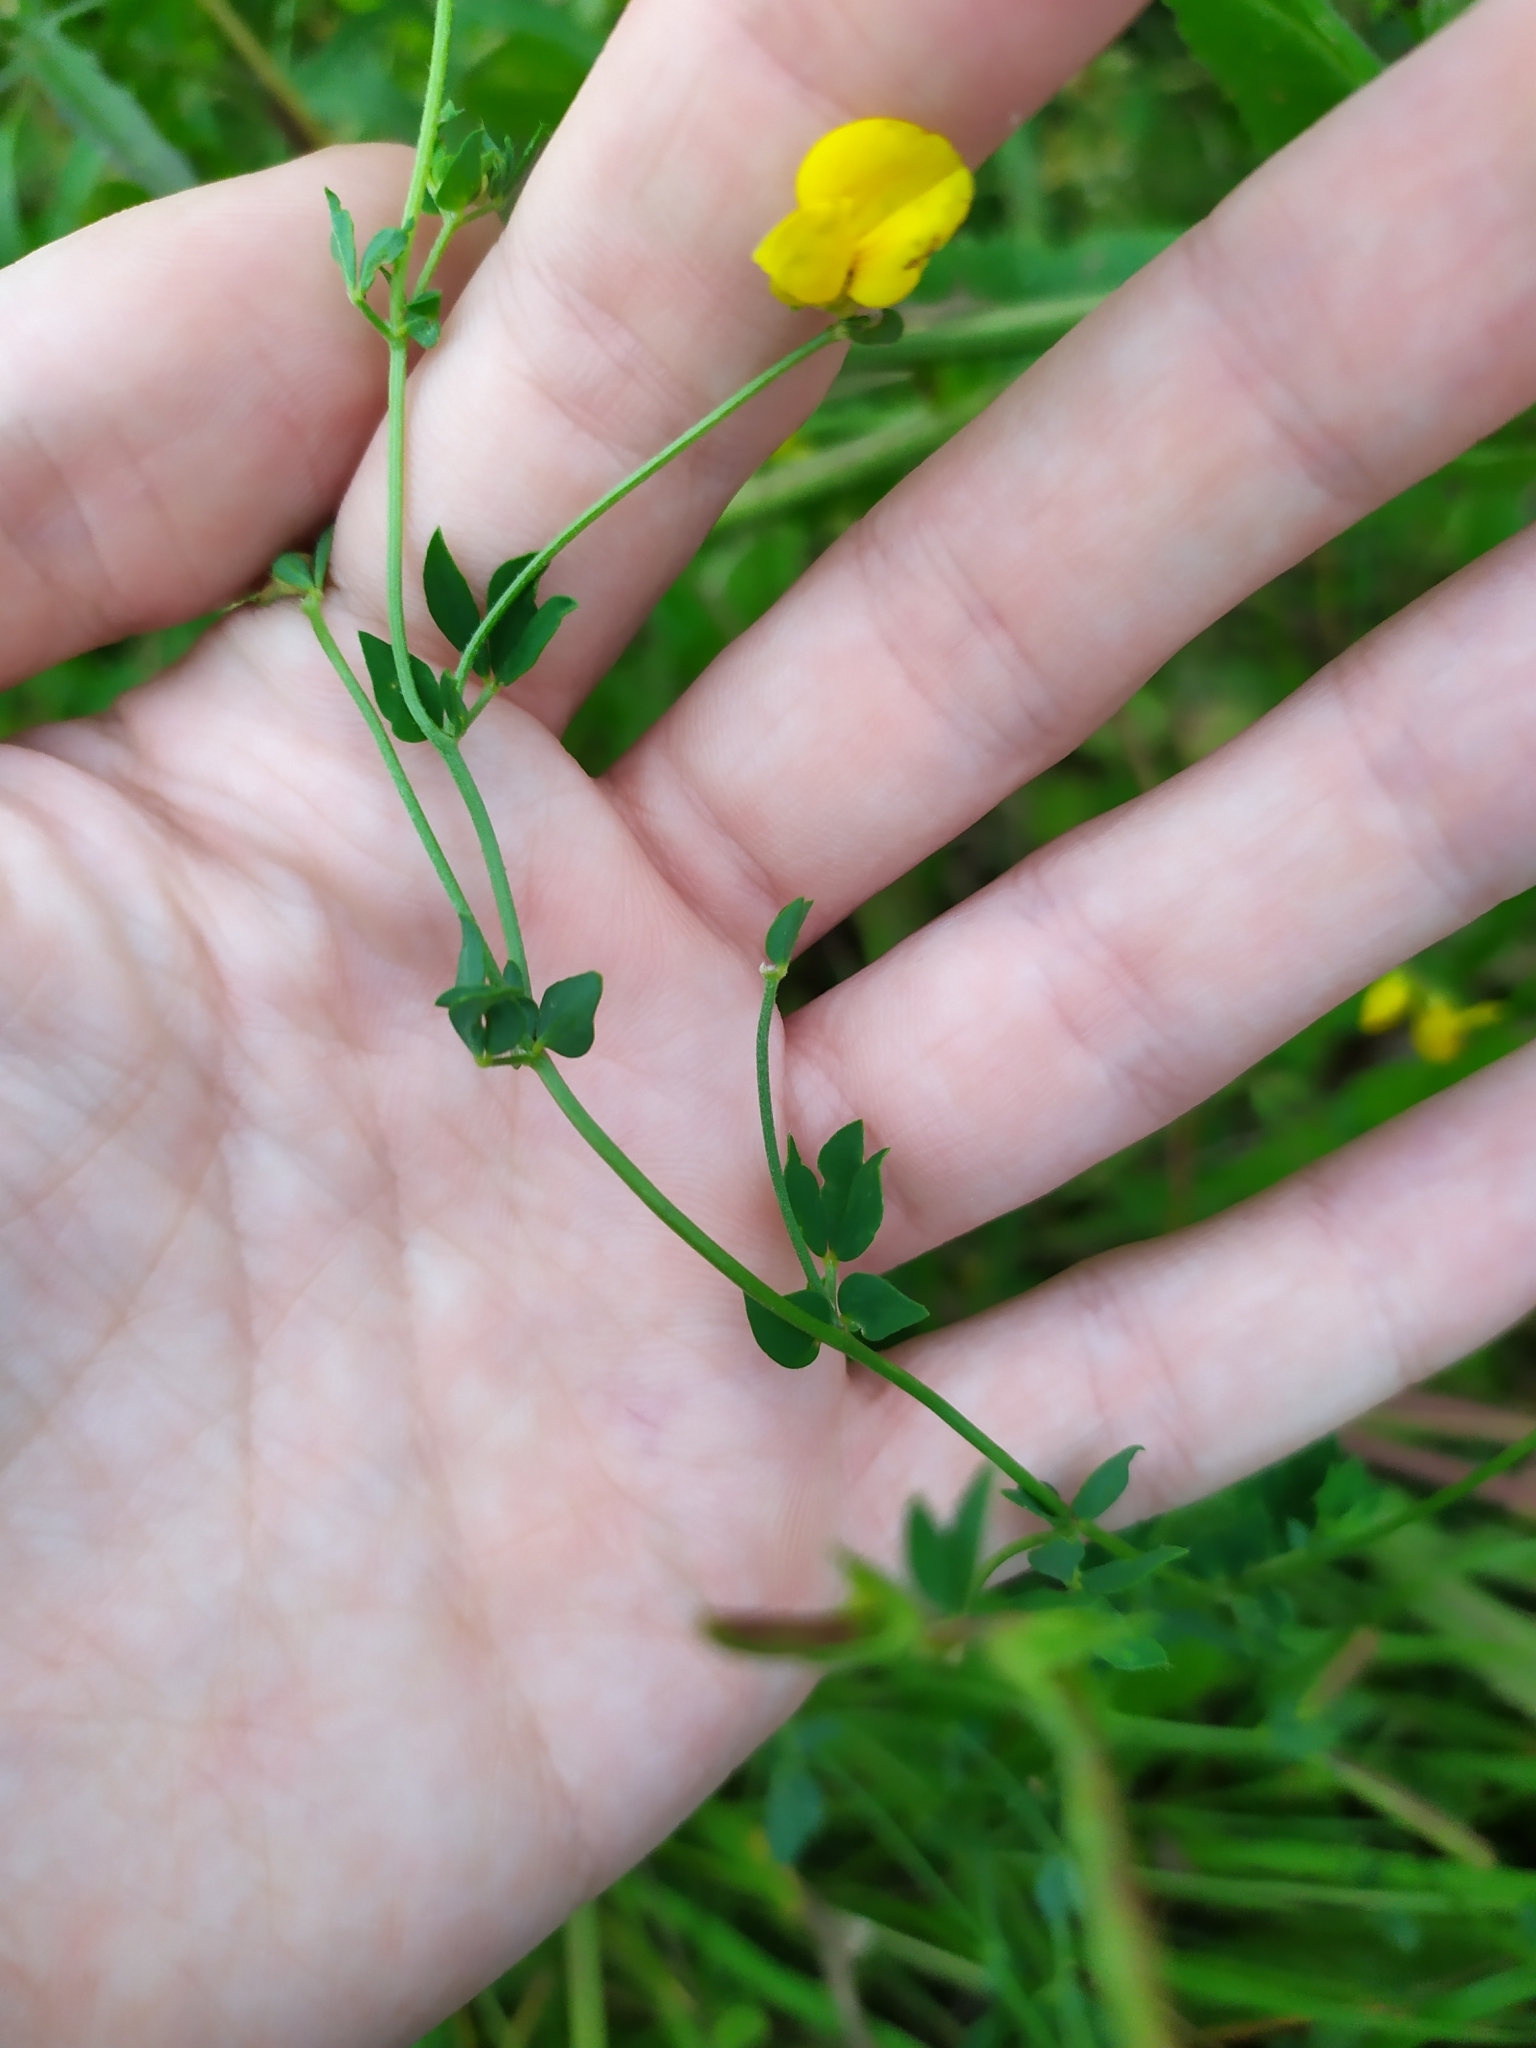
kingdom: Plantae
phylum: Tracheophyta
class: Magnoliopsida
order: Fabales
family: Fabaceae
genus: Lotus
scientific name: Lotus corniculatus
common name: Common bird's-foot-trefoil
